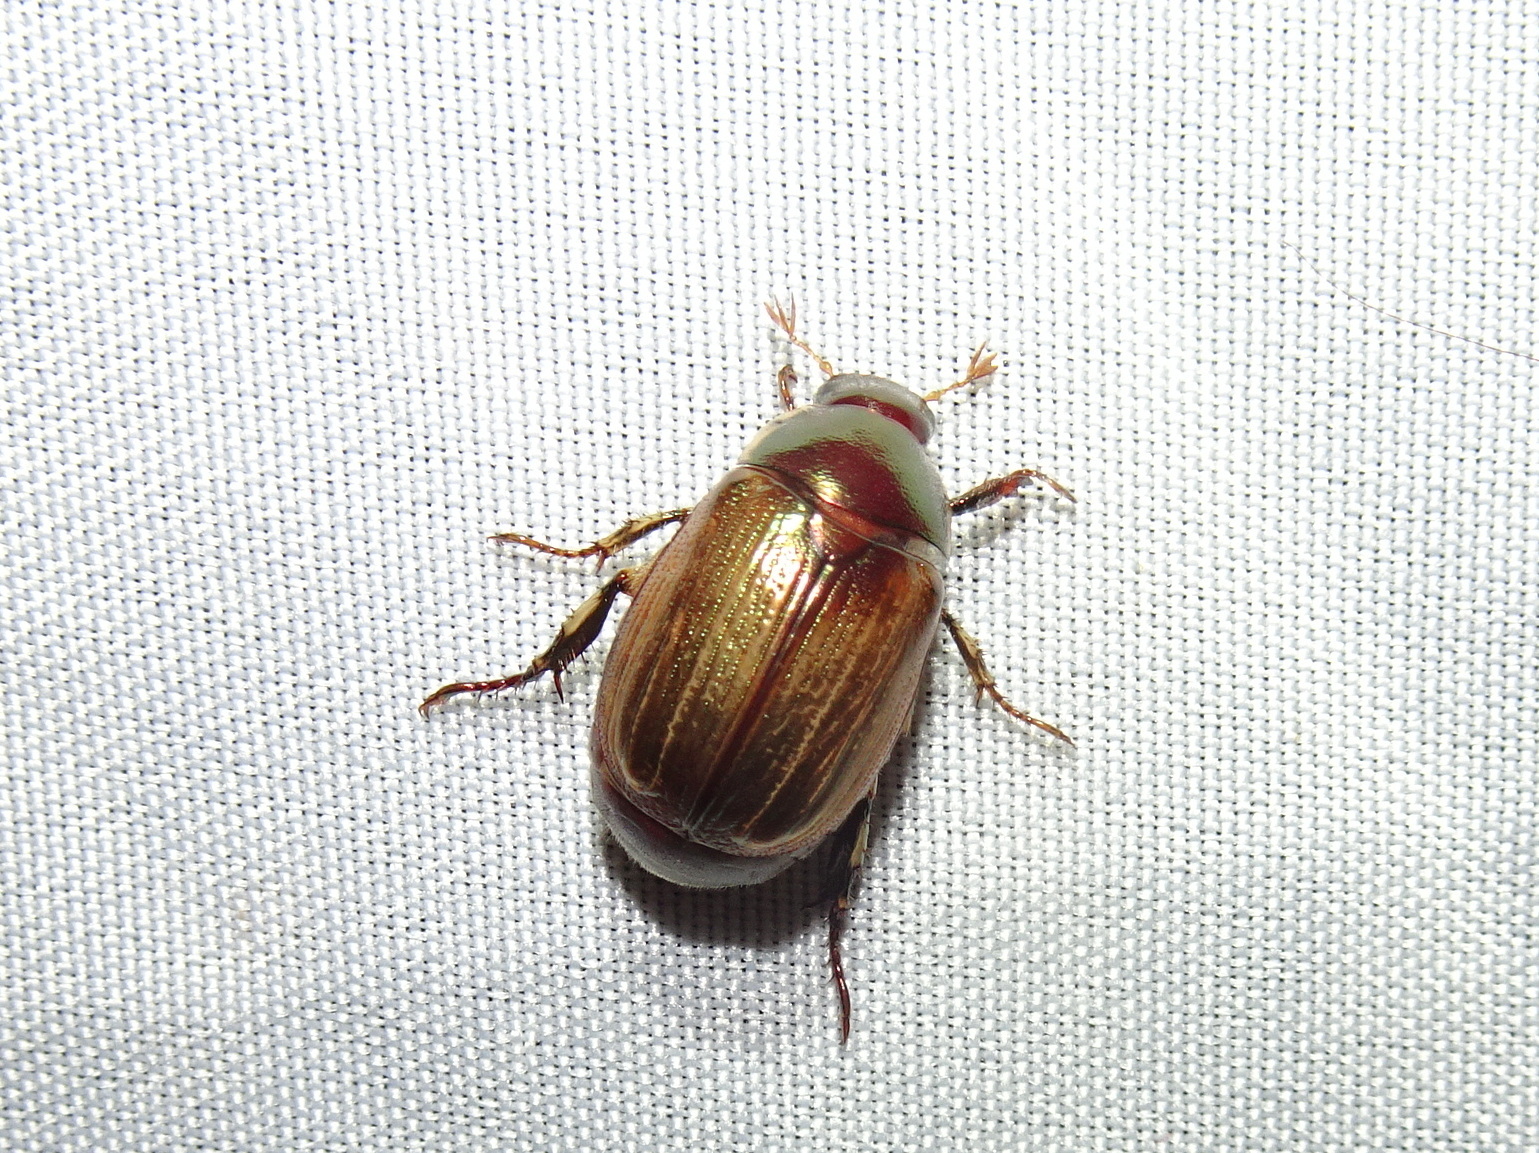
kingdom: Animalia
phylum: Arthropoda
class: Insecta
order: Coleoptera
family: Scarabaeidae
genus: Callistethus
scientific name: Callistethus marginatus
